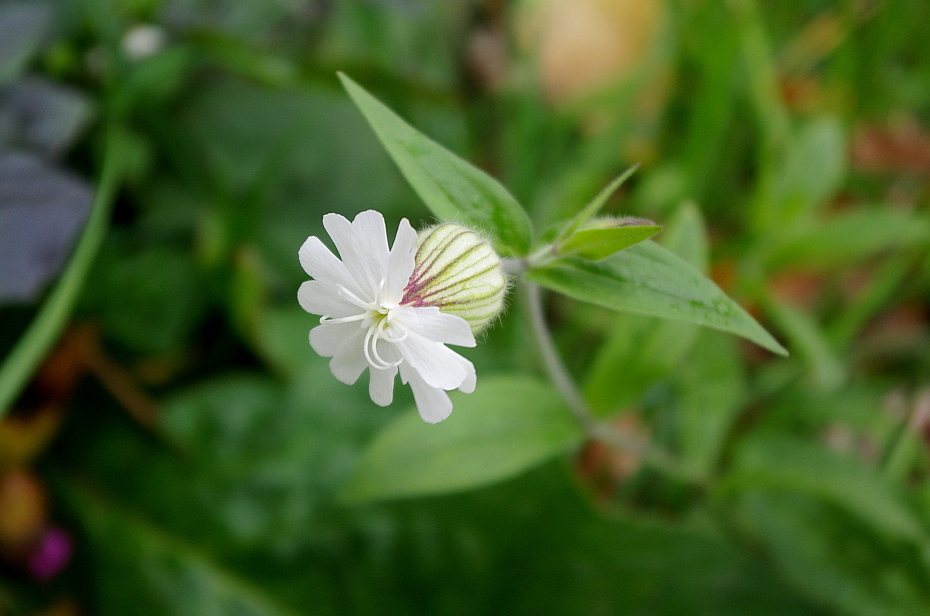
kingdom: Plantae
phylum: Tracheophyta
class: Magnoliopsida
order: Caryophyllales
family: Caryophyllaceae
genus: Silene
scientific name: Silene latifolia
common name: White campion
